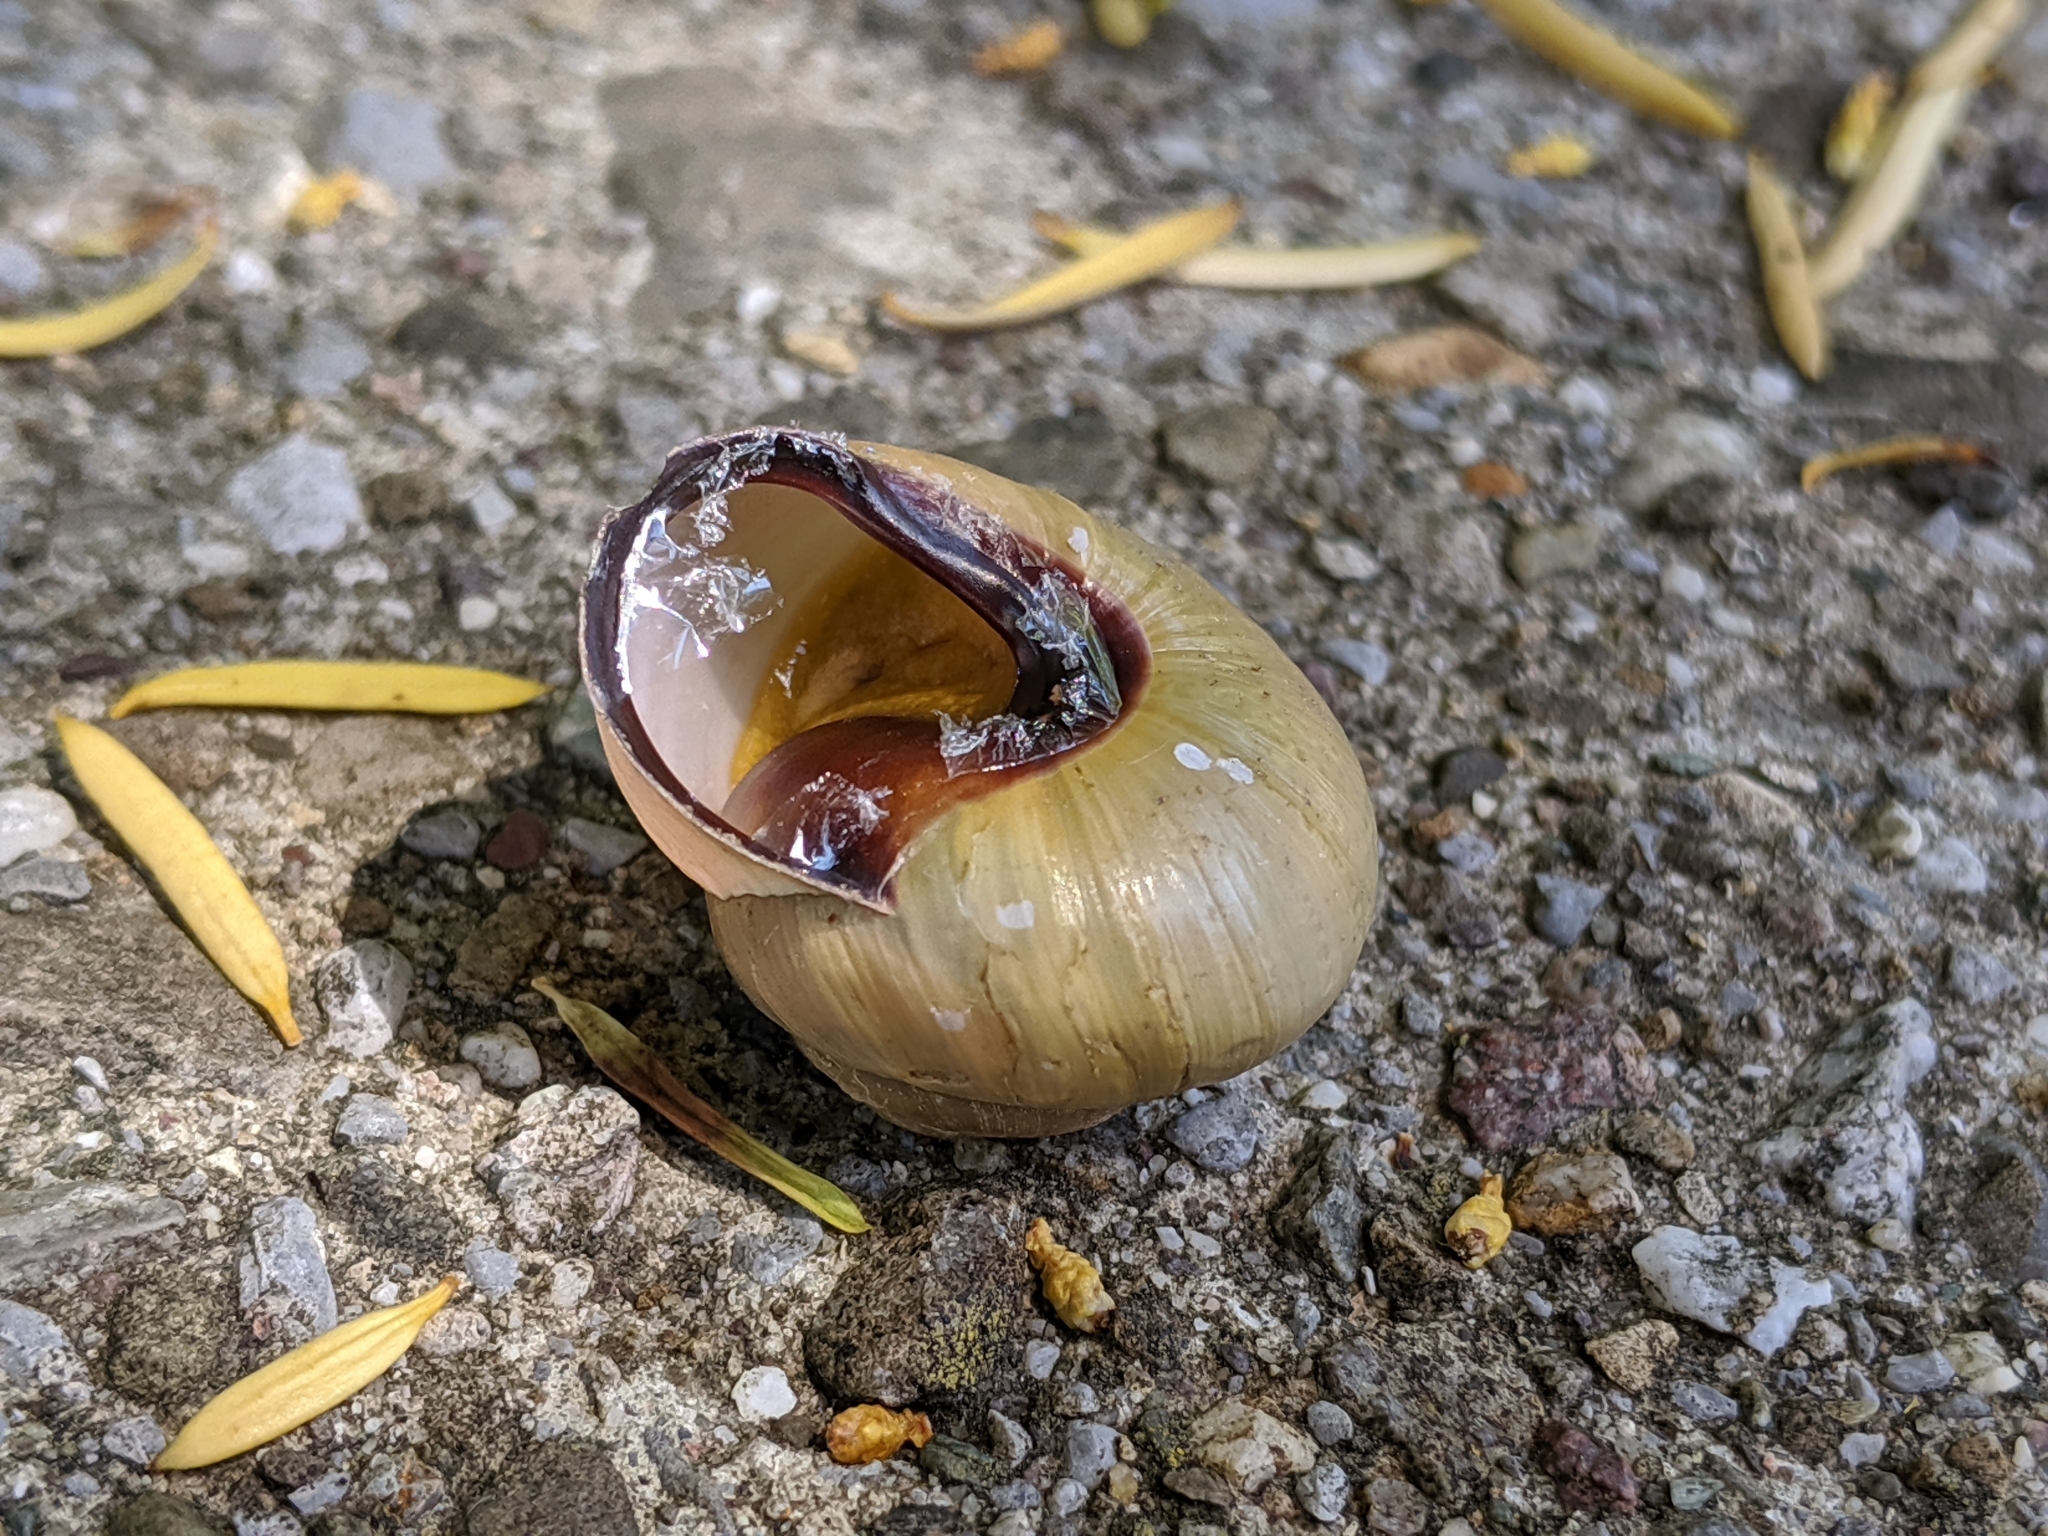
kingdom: Animalia
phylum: Mollusca
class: Gastropoda
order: Stylommatophora
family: Helicidae
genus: Cepaea
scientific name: Cepaea nemoralis
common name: Grovesnail
